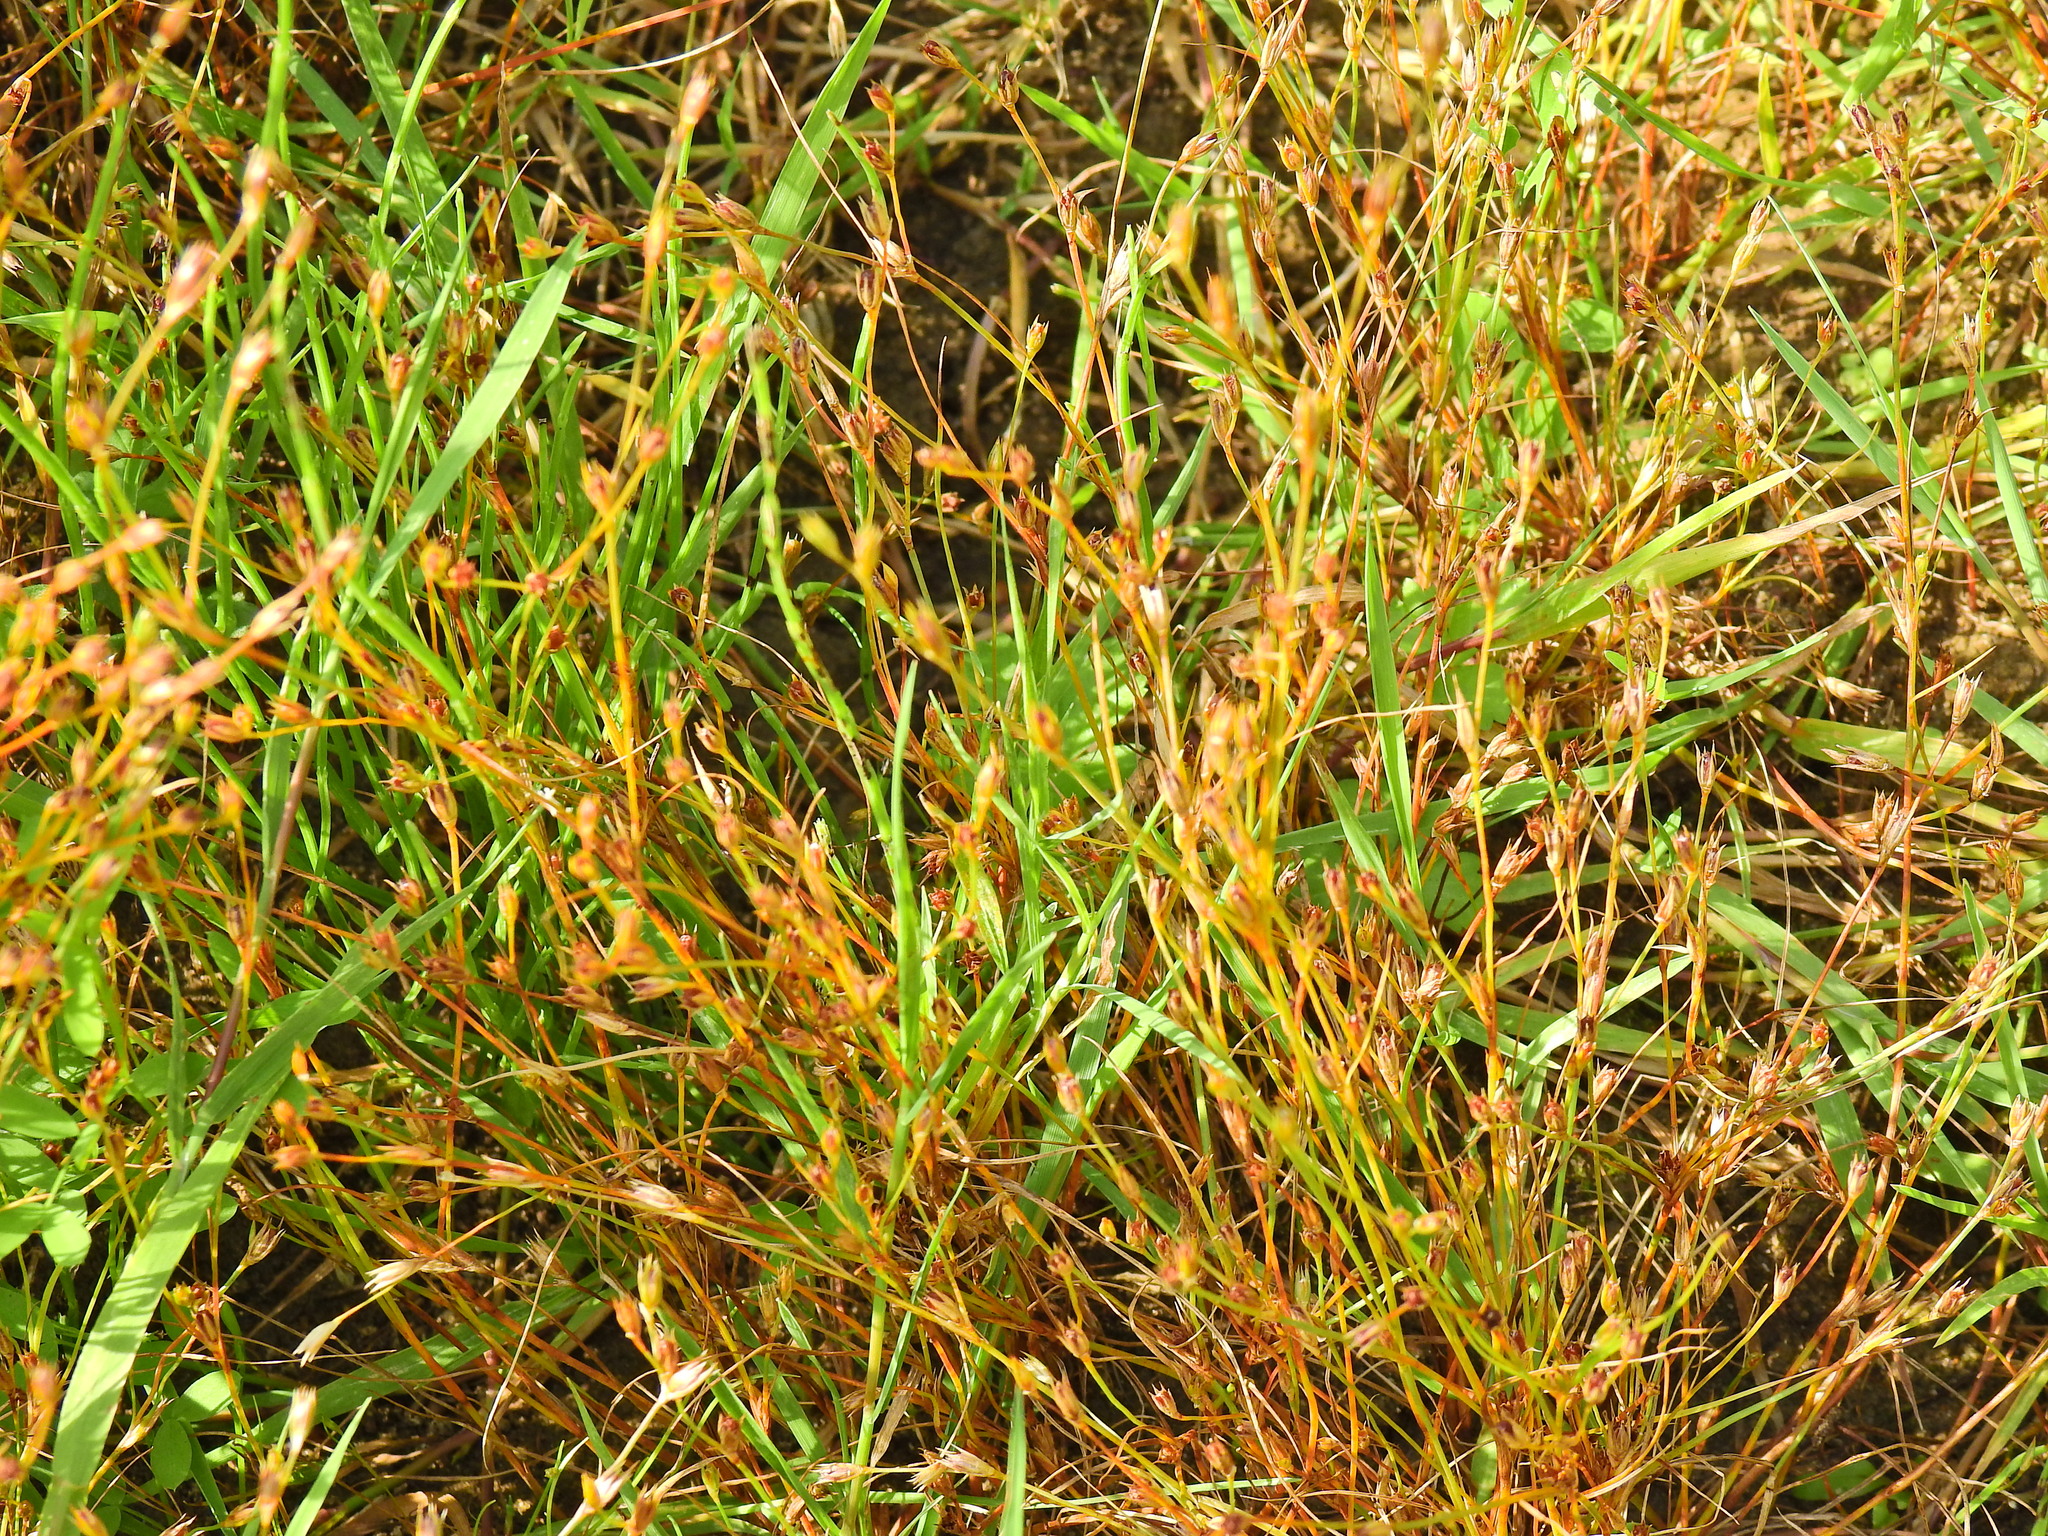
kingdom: Plantae
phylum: Tracheophyta
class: Liliopsida
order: Poales
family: Juncaceae
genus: Juncus
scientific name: Juncus bufonius
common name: Toad rush
